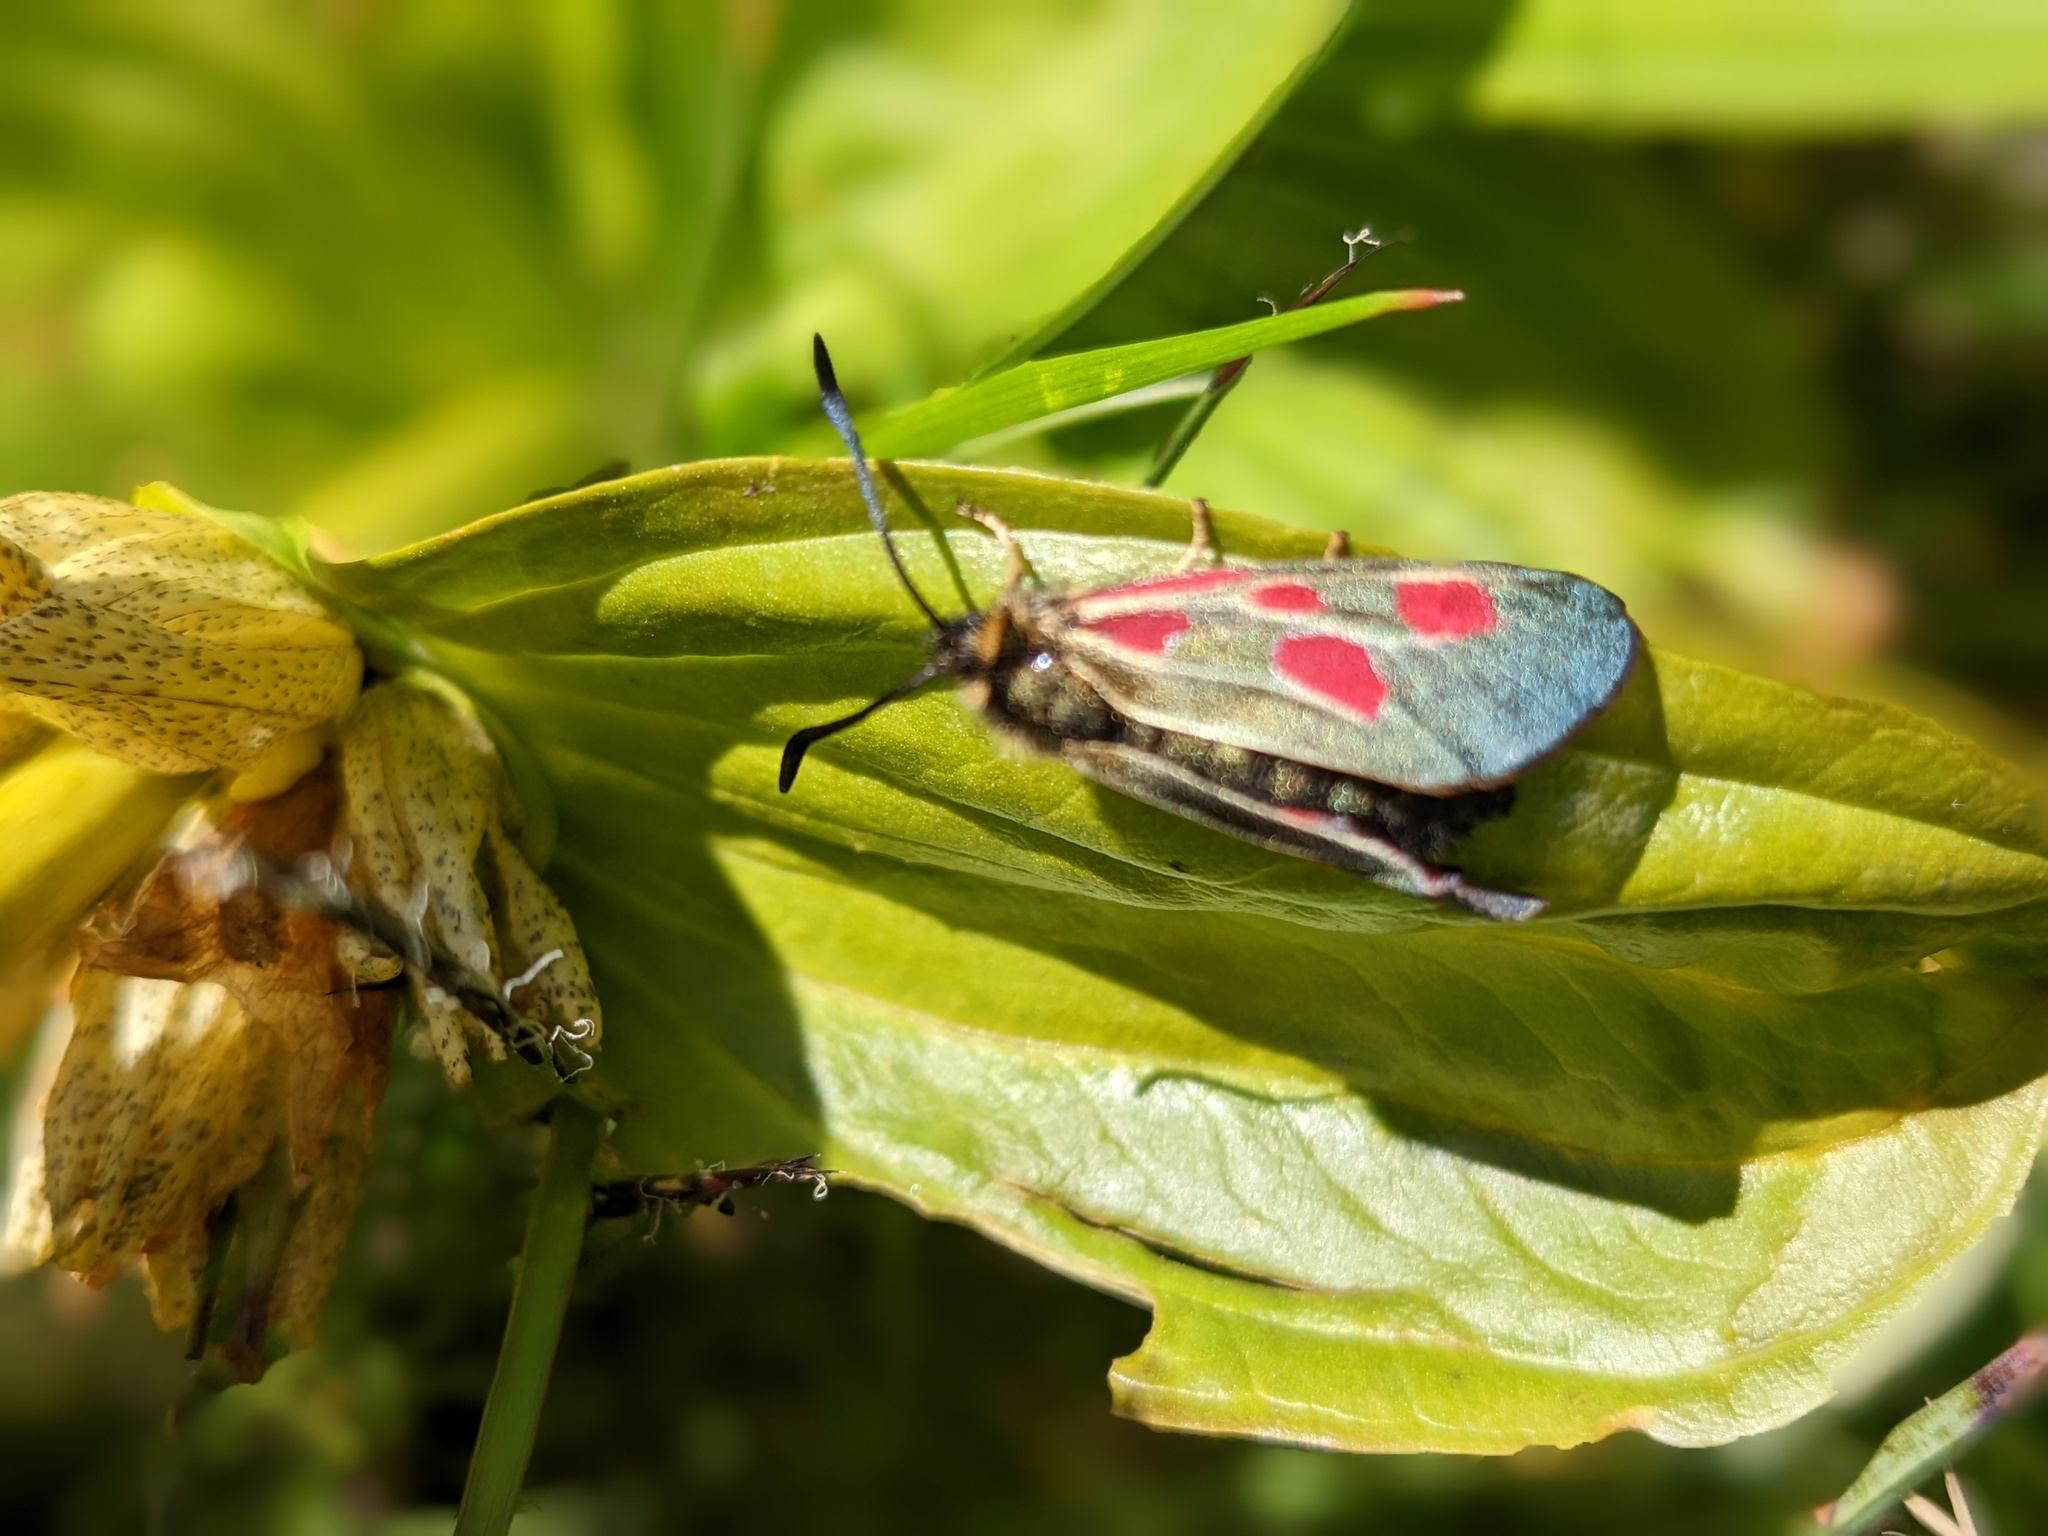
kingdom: Animalia
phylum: Arthropoda
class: Insecta
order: Lepidoptera
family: Zygaenidae
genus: Zygaena
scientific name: Zygaena exulans
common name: Scotch burnet
